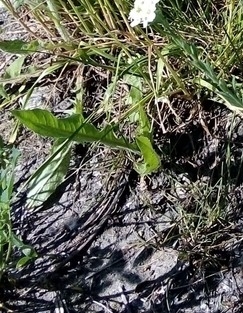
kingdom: Plantae
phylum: Tracheophyta
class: Magnoliopsida
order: Asterales
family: Asteraceae
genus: Taraxacum
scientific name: Taraxacum officinale
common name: Common dandelion
